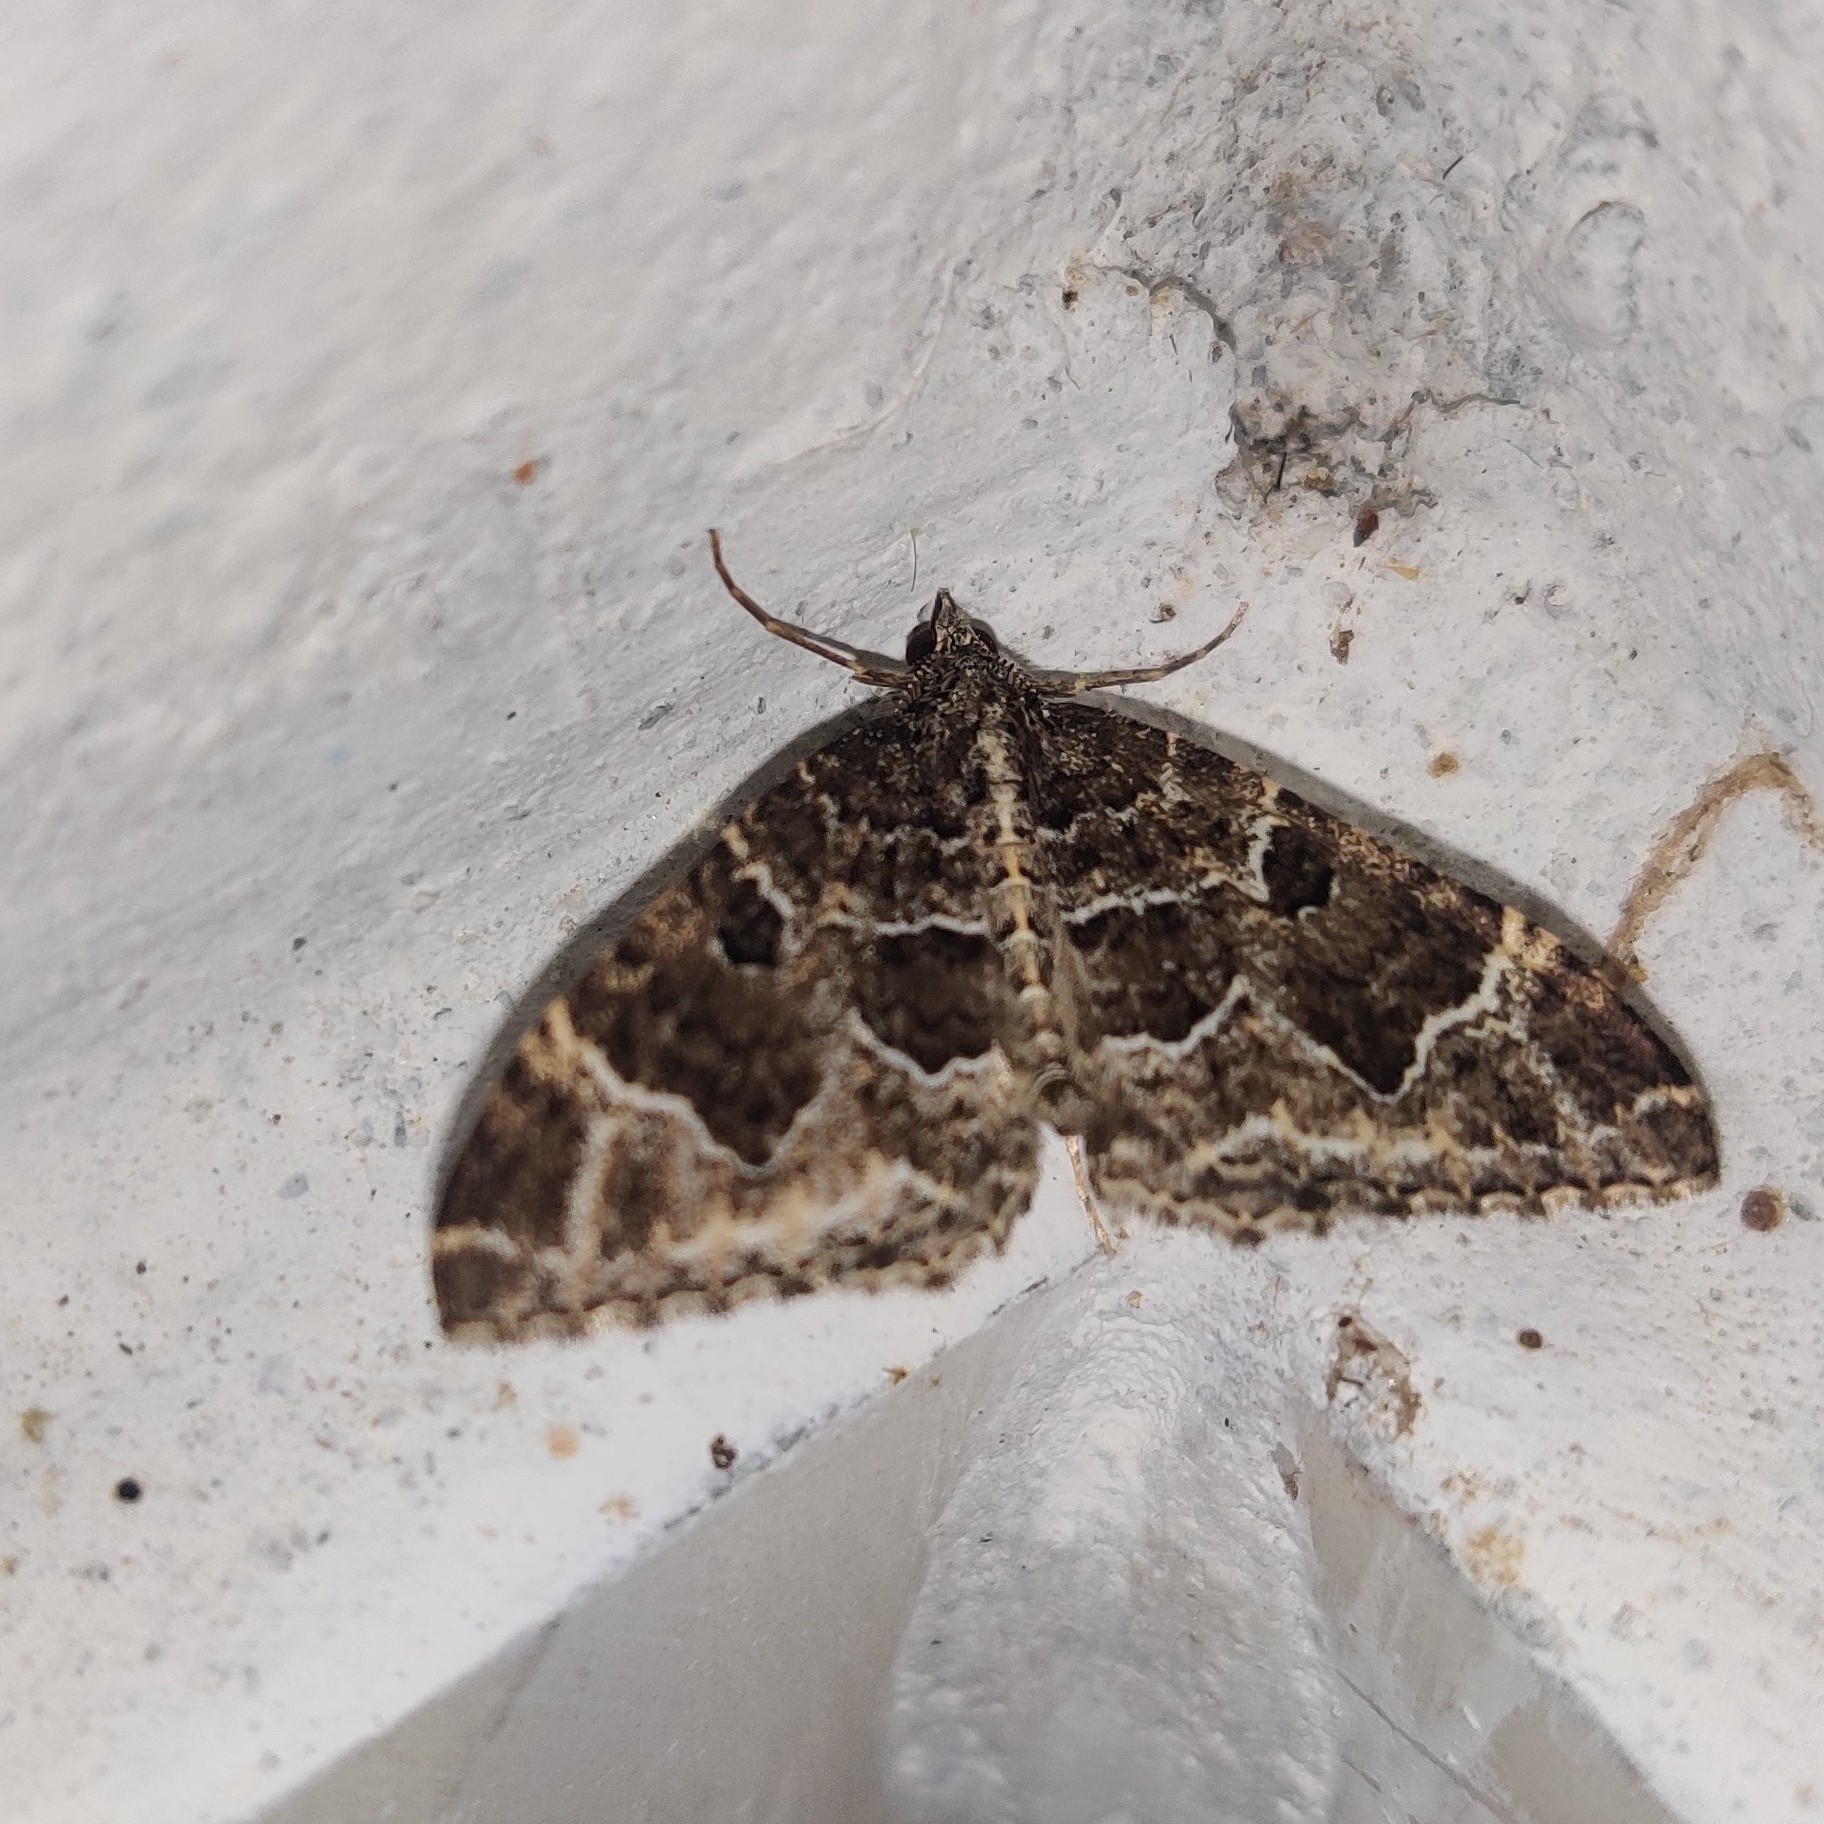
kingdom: Animalia
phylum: Arthropoda
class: Insecta
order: Lepidoptera
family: Geometridae
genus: Colostygia
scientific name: Colostygia albigirata
